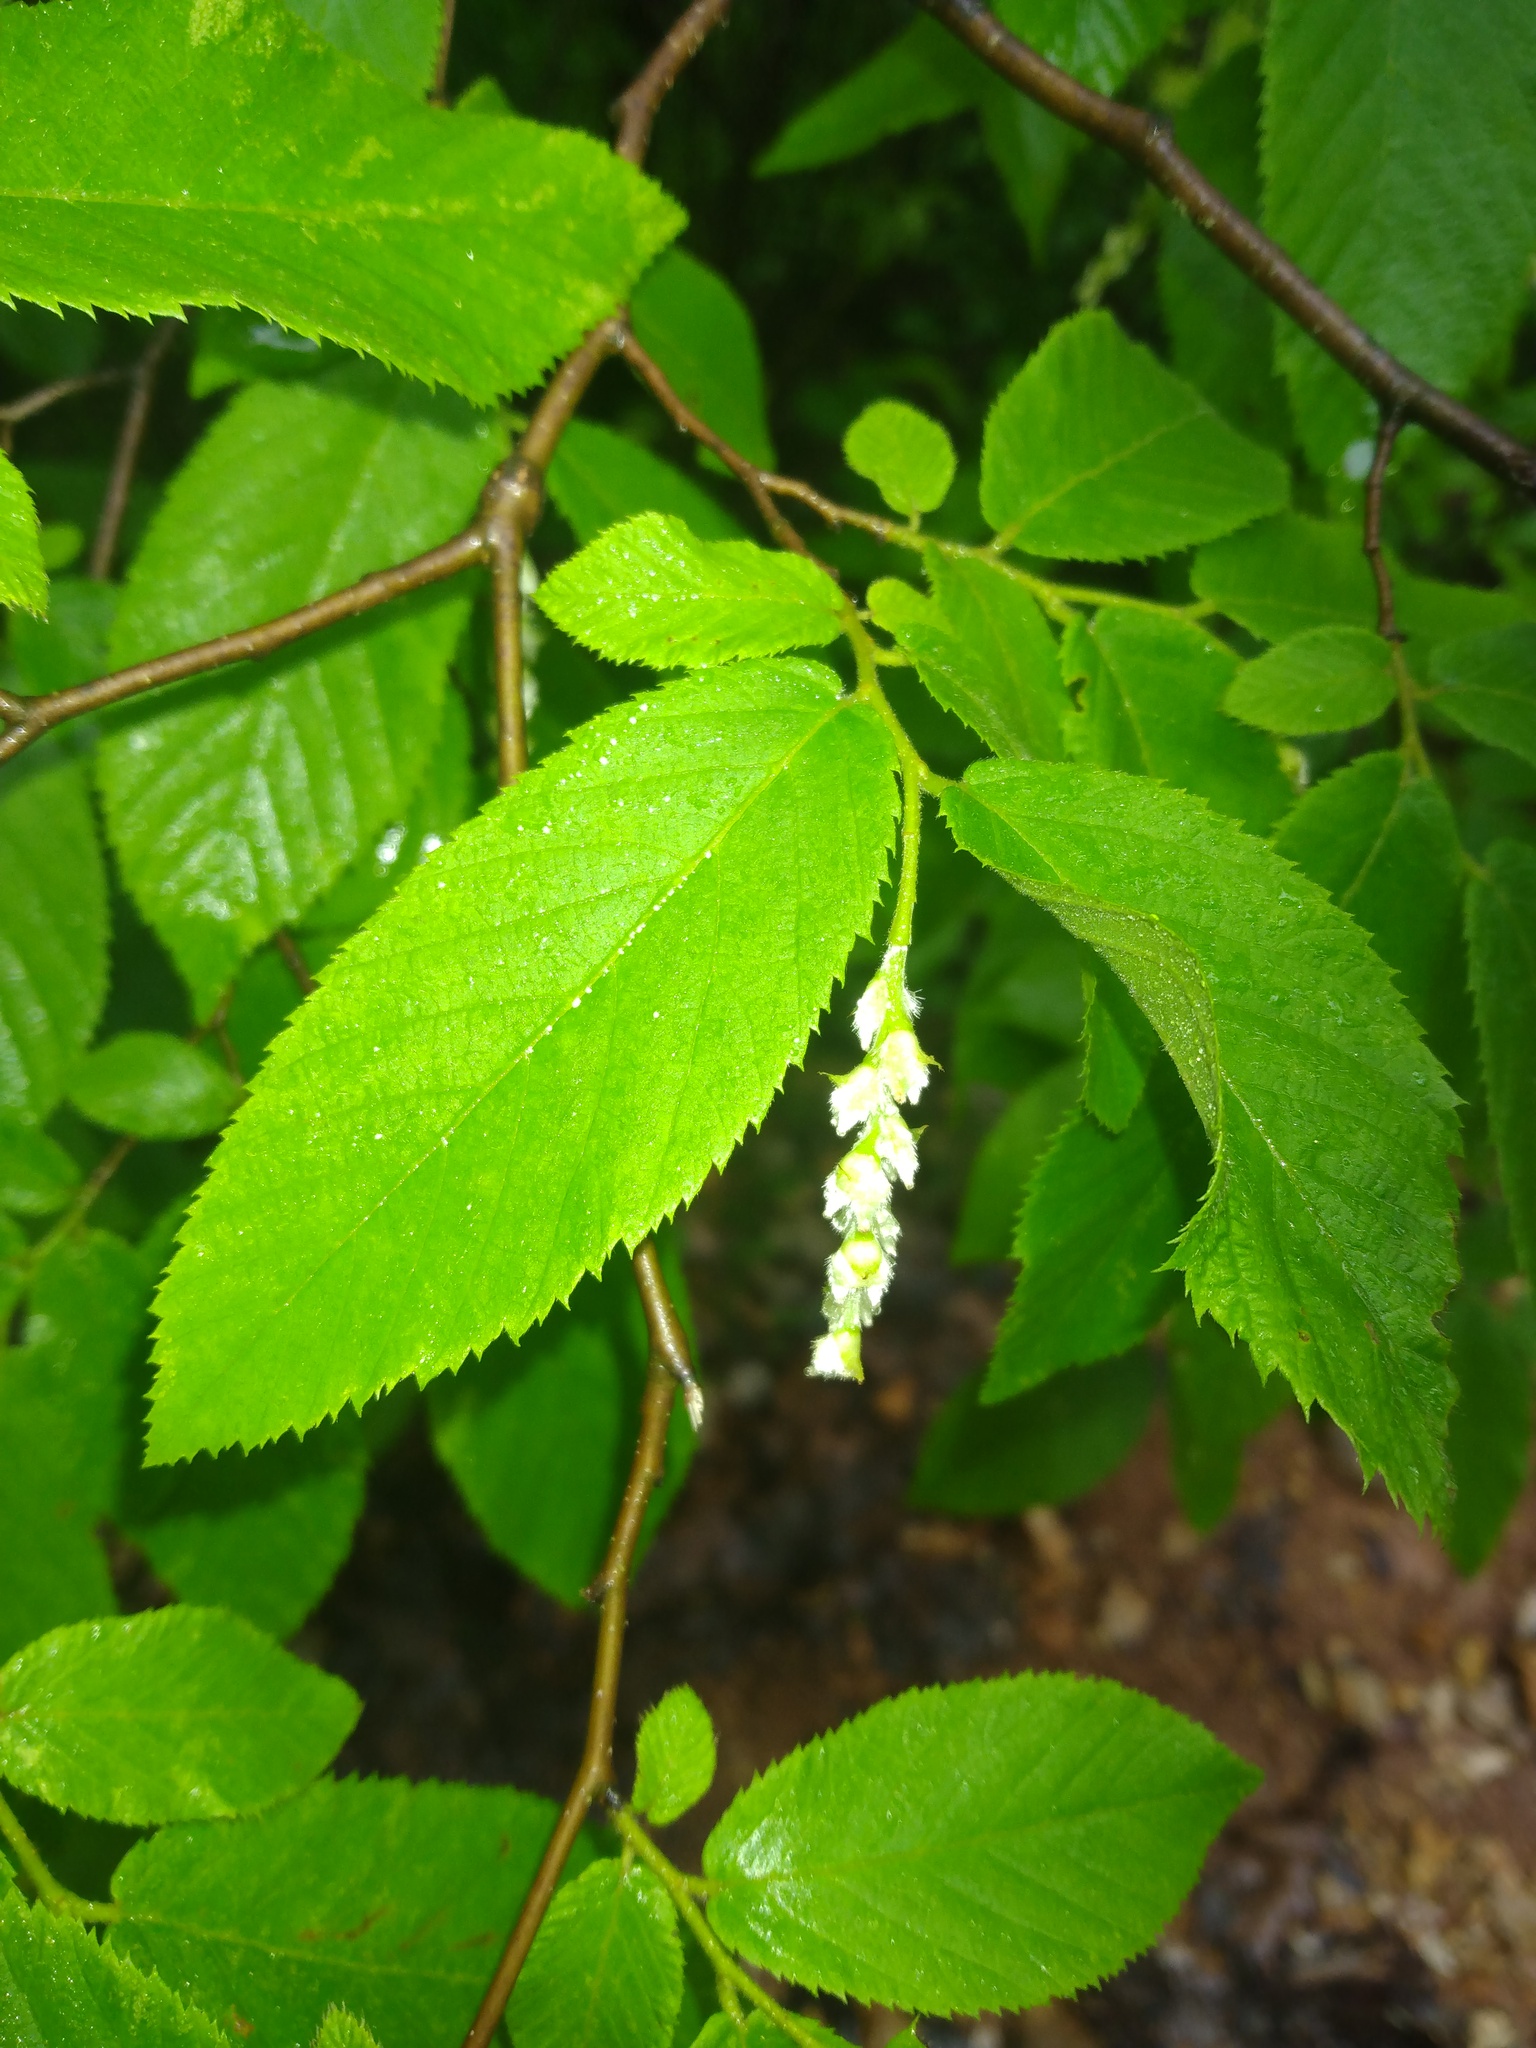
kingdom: Plantae
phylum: Tracheophyta
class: Magnoliopsida
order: Fagales
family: Betulaceae
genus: Ostrya
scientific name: Ostrya virginiana
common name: Ironwood
